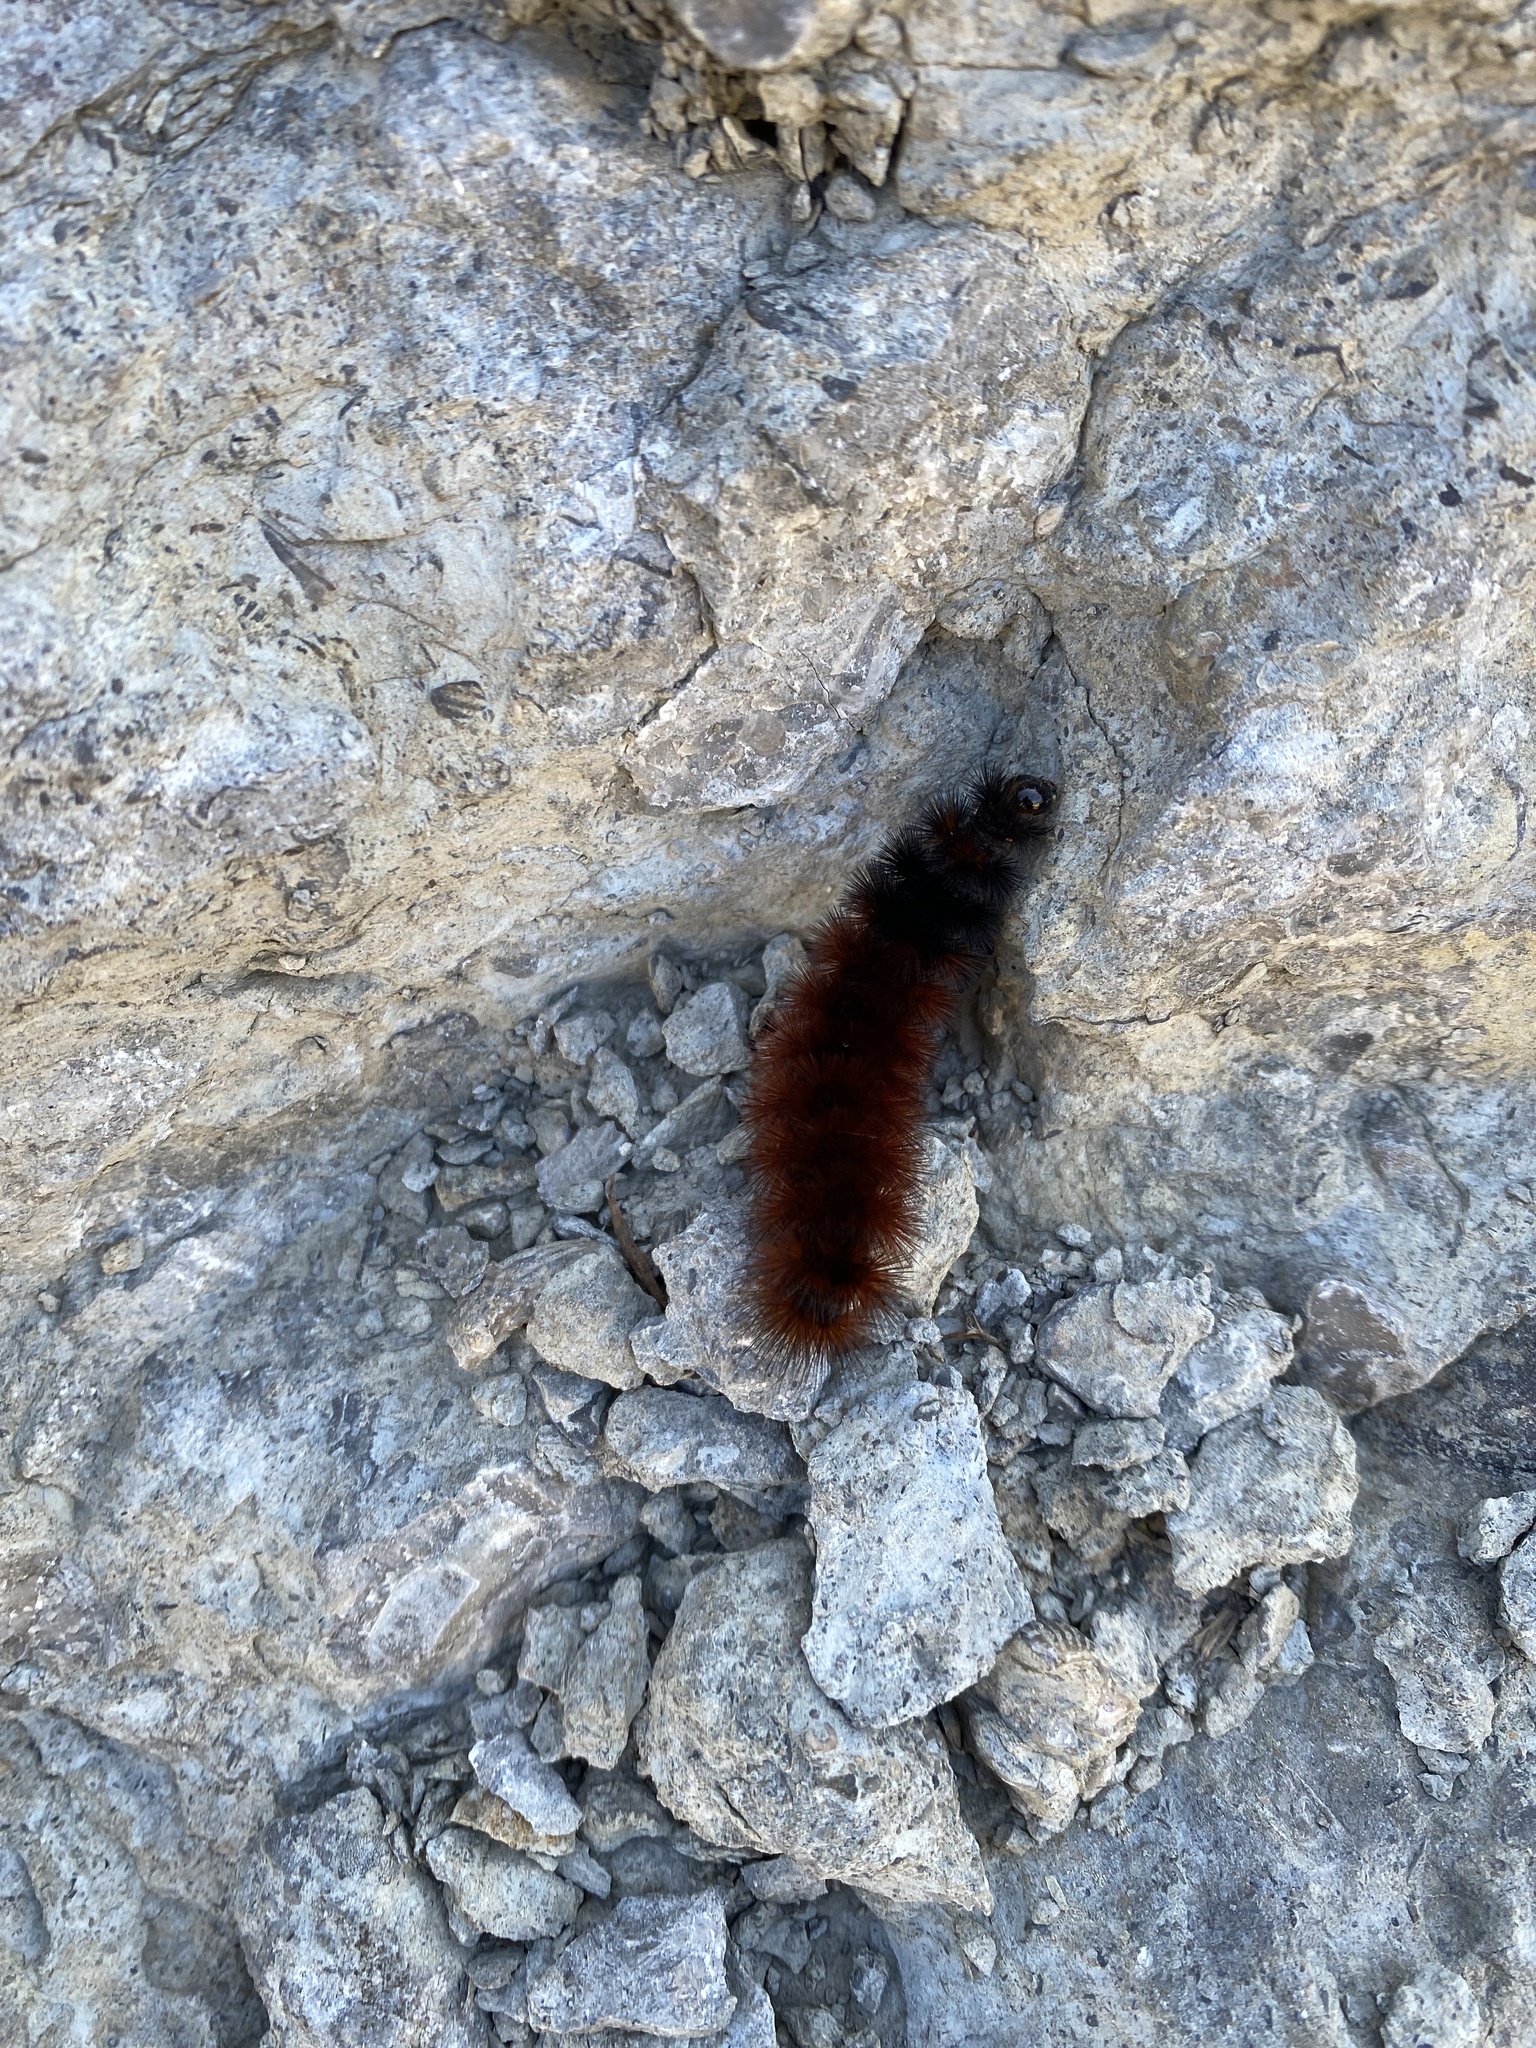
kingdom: Animalia
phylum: Arthropoda
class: Insecta
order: Lepidoptera
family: Erebidae
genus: Pyrrharctia
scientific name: Pyrrharctia isabella
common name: Isabella tiger moth
